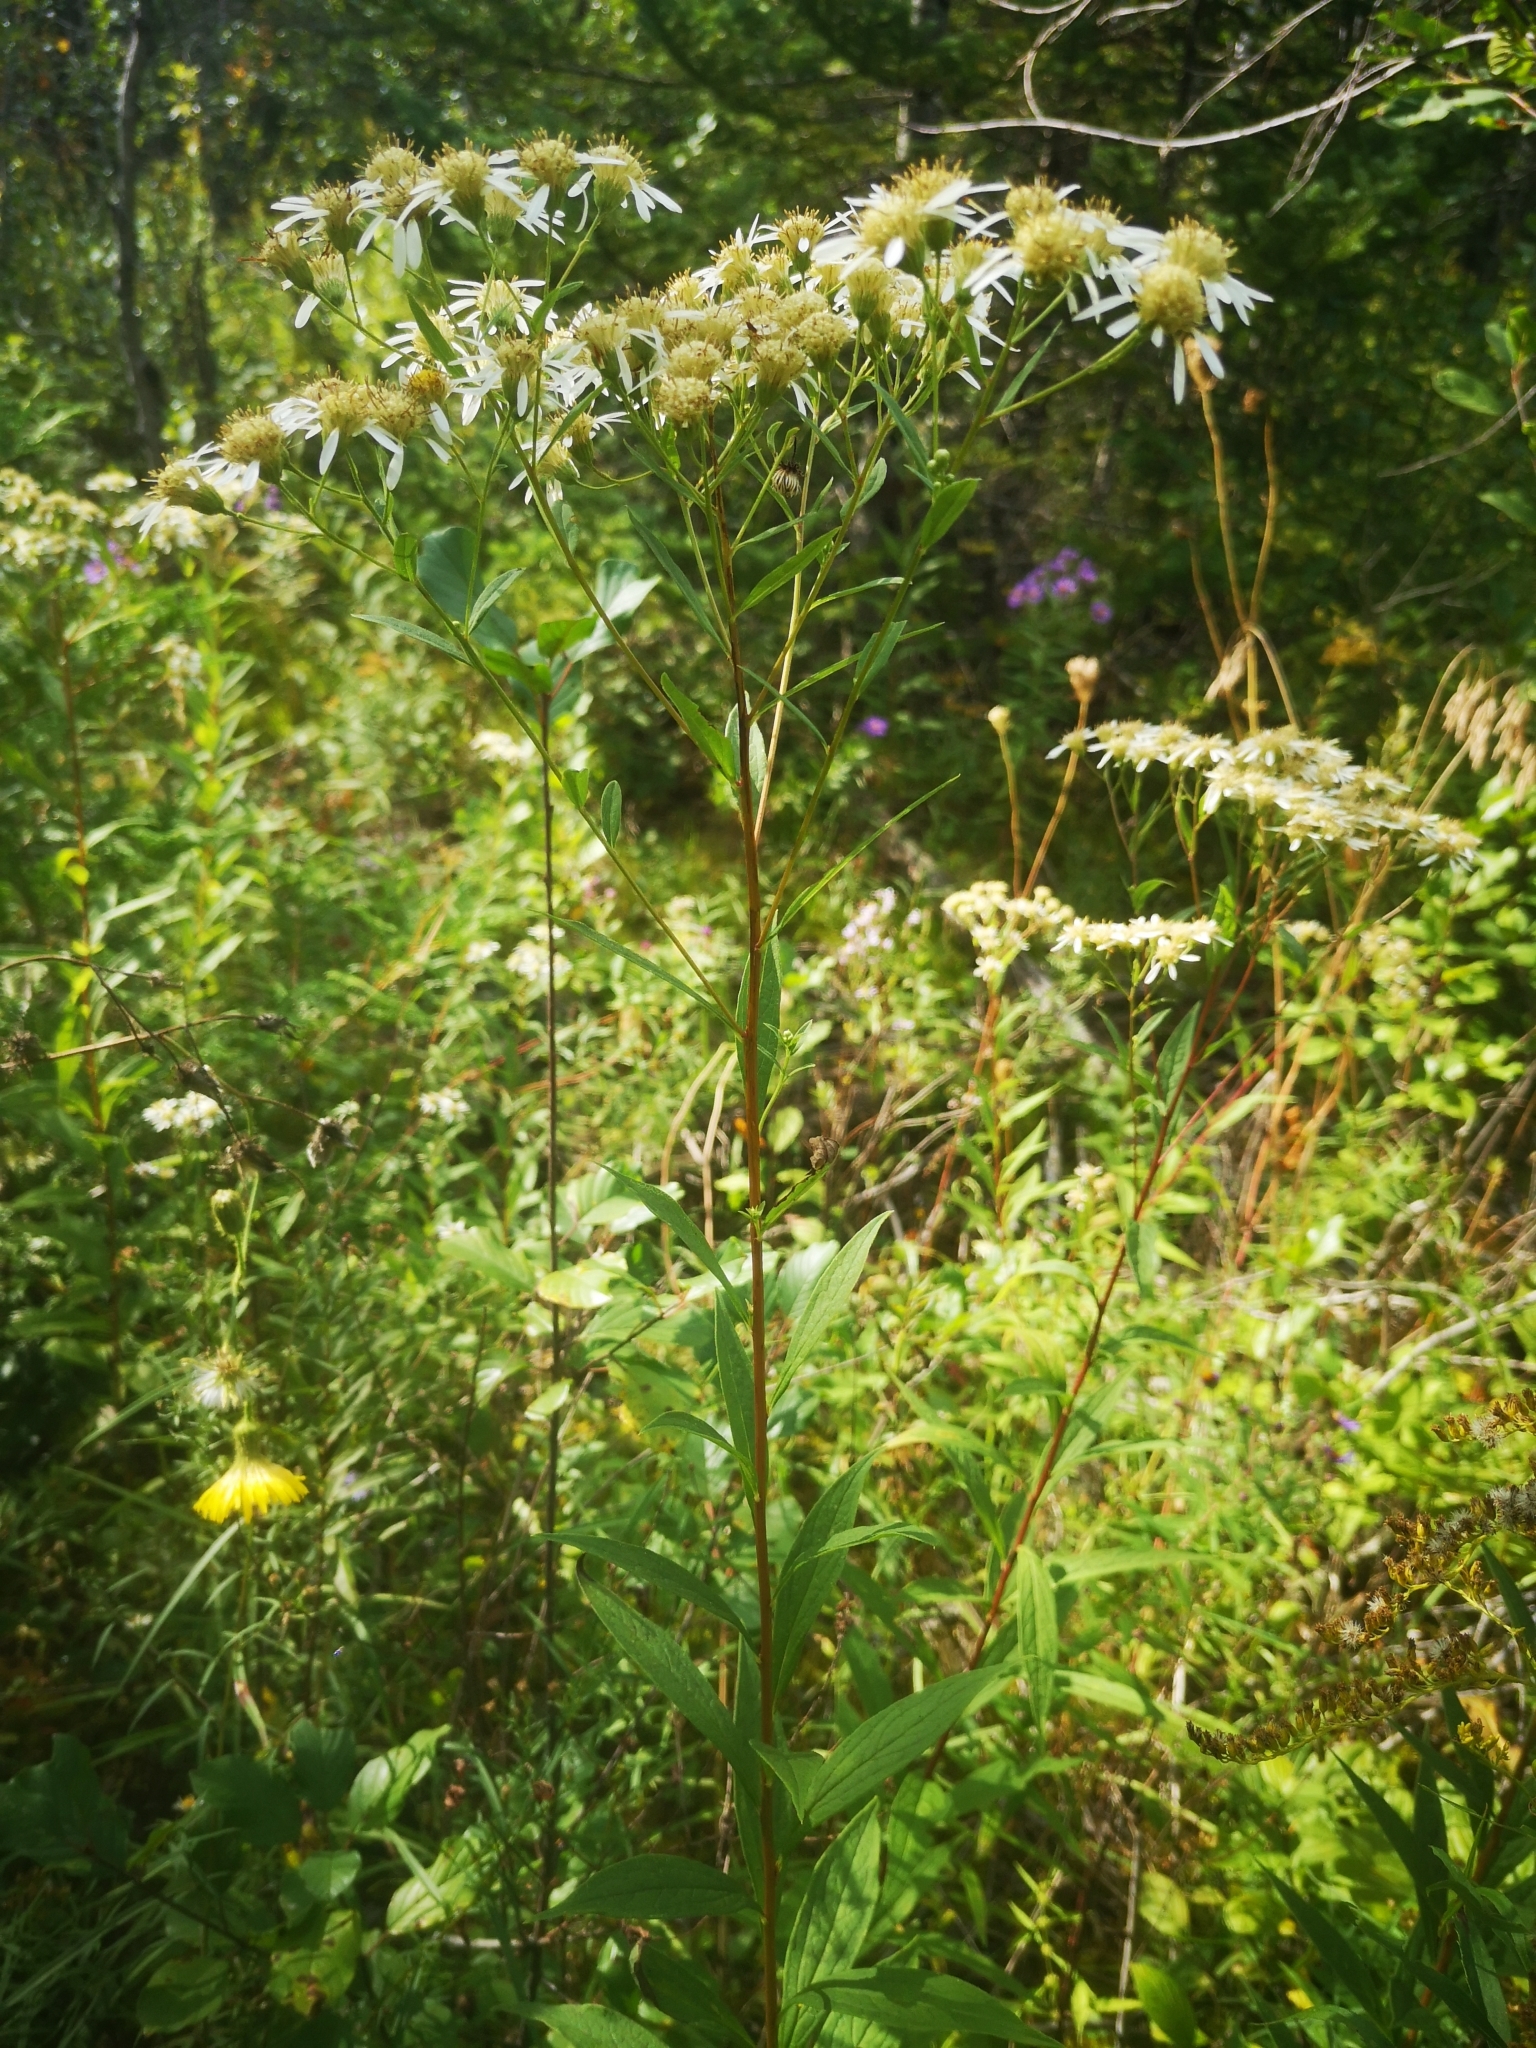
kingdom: Plantae
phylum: Tracheophyta
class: Magnoliopsida
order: Asterales
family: Asteraceae
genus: Doellingeria
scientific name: Doellingeria umbellata
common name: Flat-top white aster
